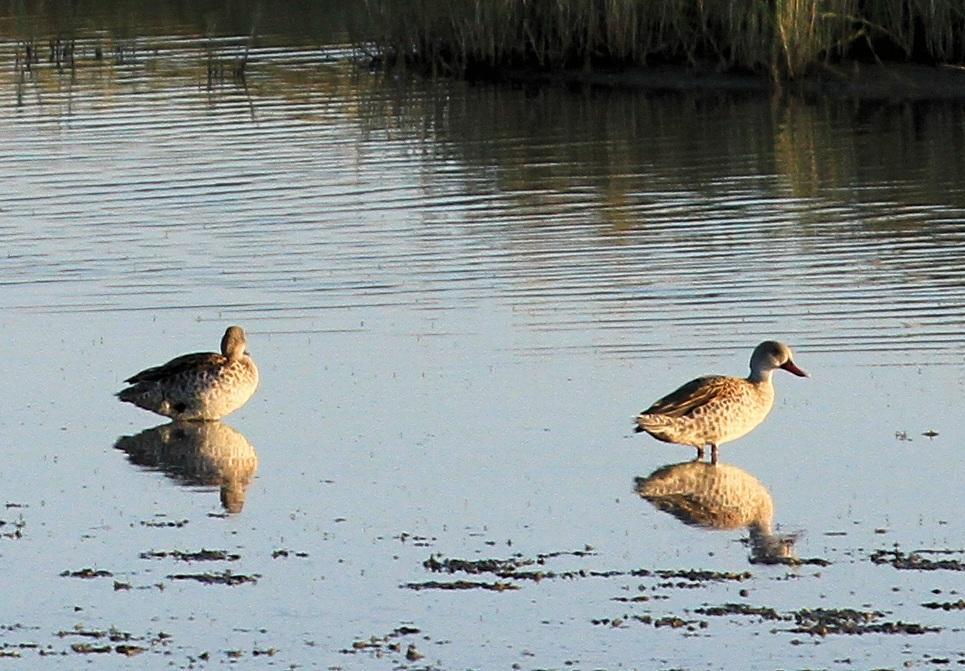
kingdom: Animalia
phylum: Chordata
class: Aves
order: Anseriformes
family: Anatidae
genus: Anas
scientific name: Anas capensis
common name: Cape teal
